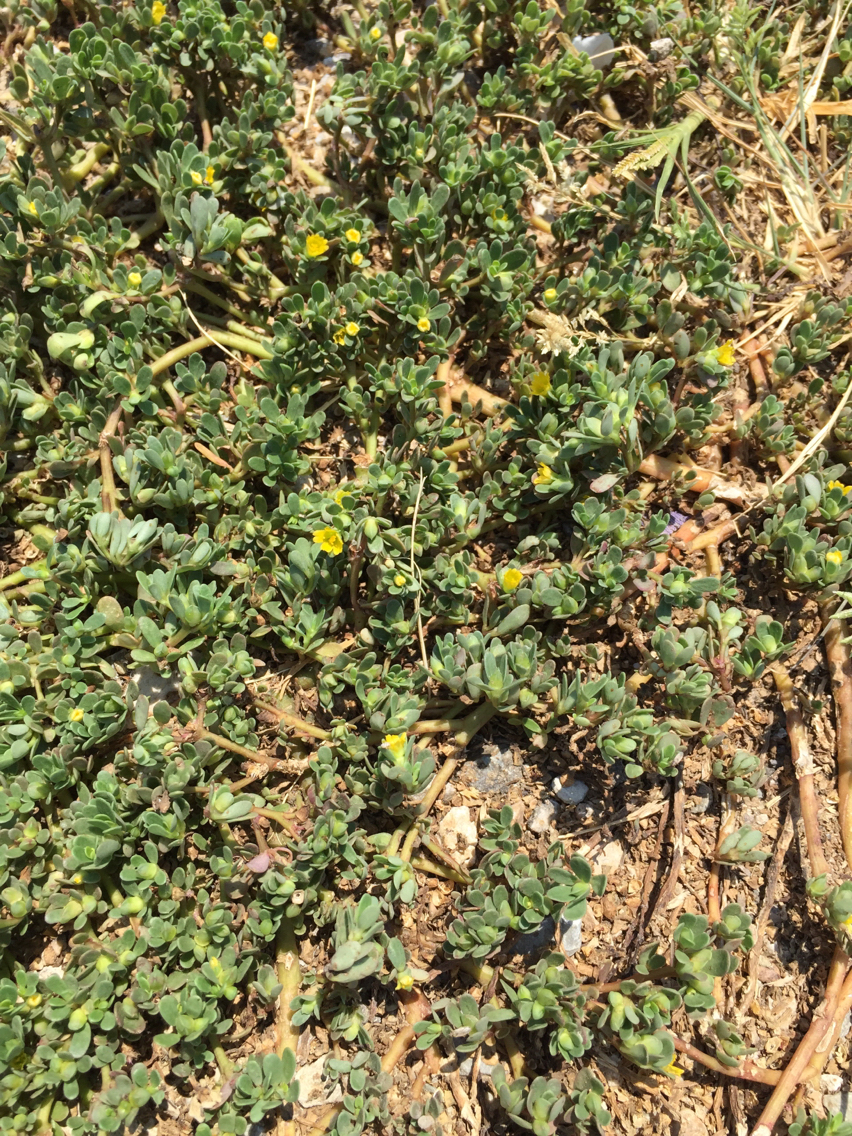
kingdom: Plantae
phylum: Tracheophyta
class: Magnoliopsida
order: Caryophyllales
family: Portulacaceae
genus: Portulaca
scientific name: Portulaca oleracea
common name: Common purslane
